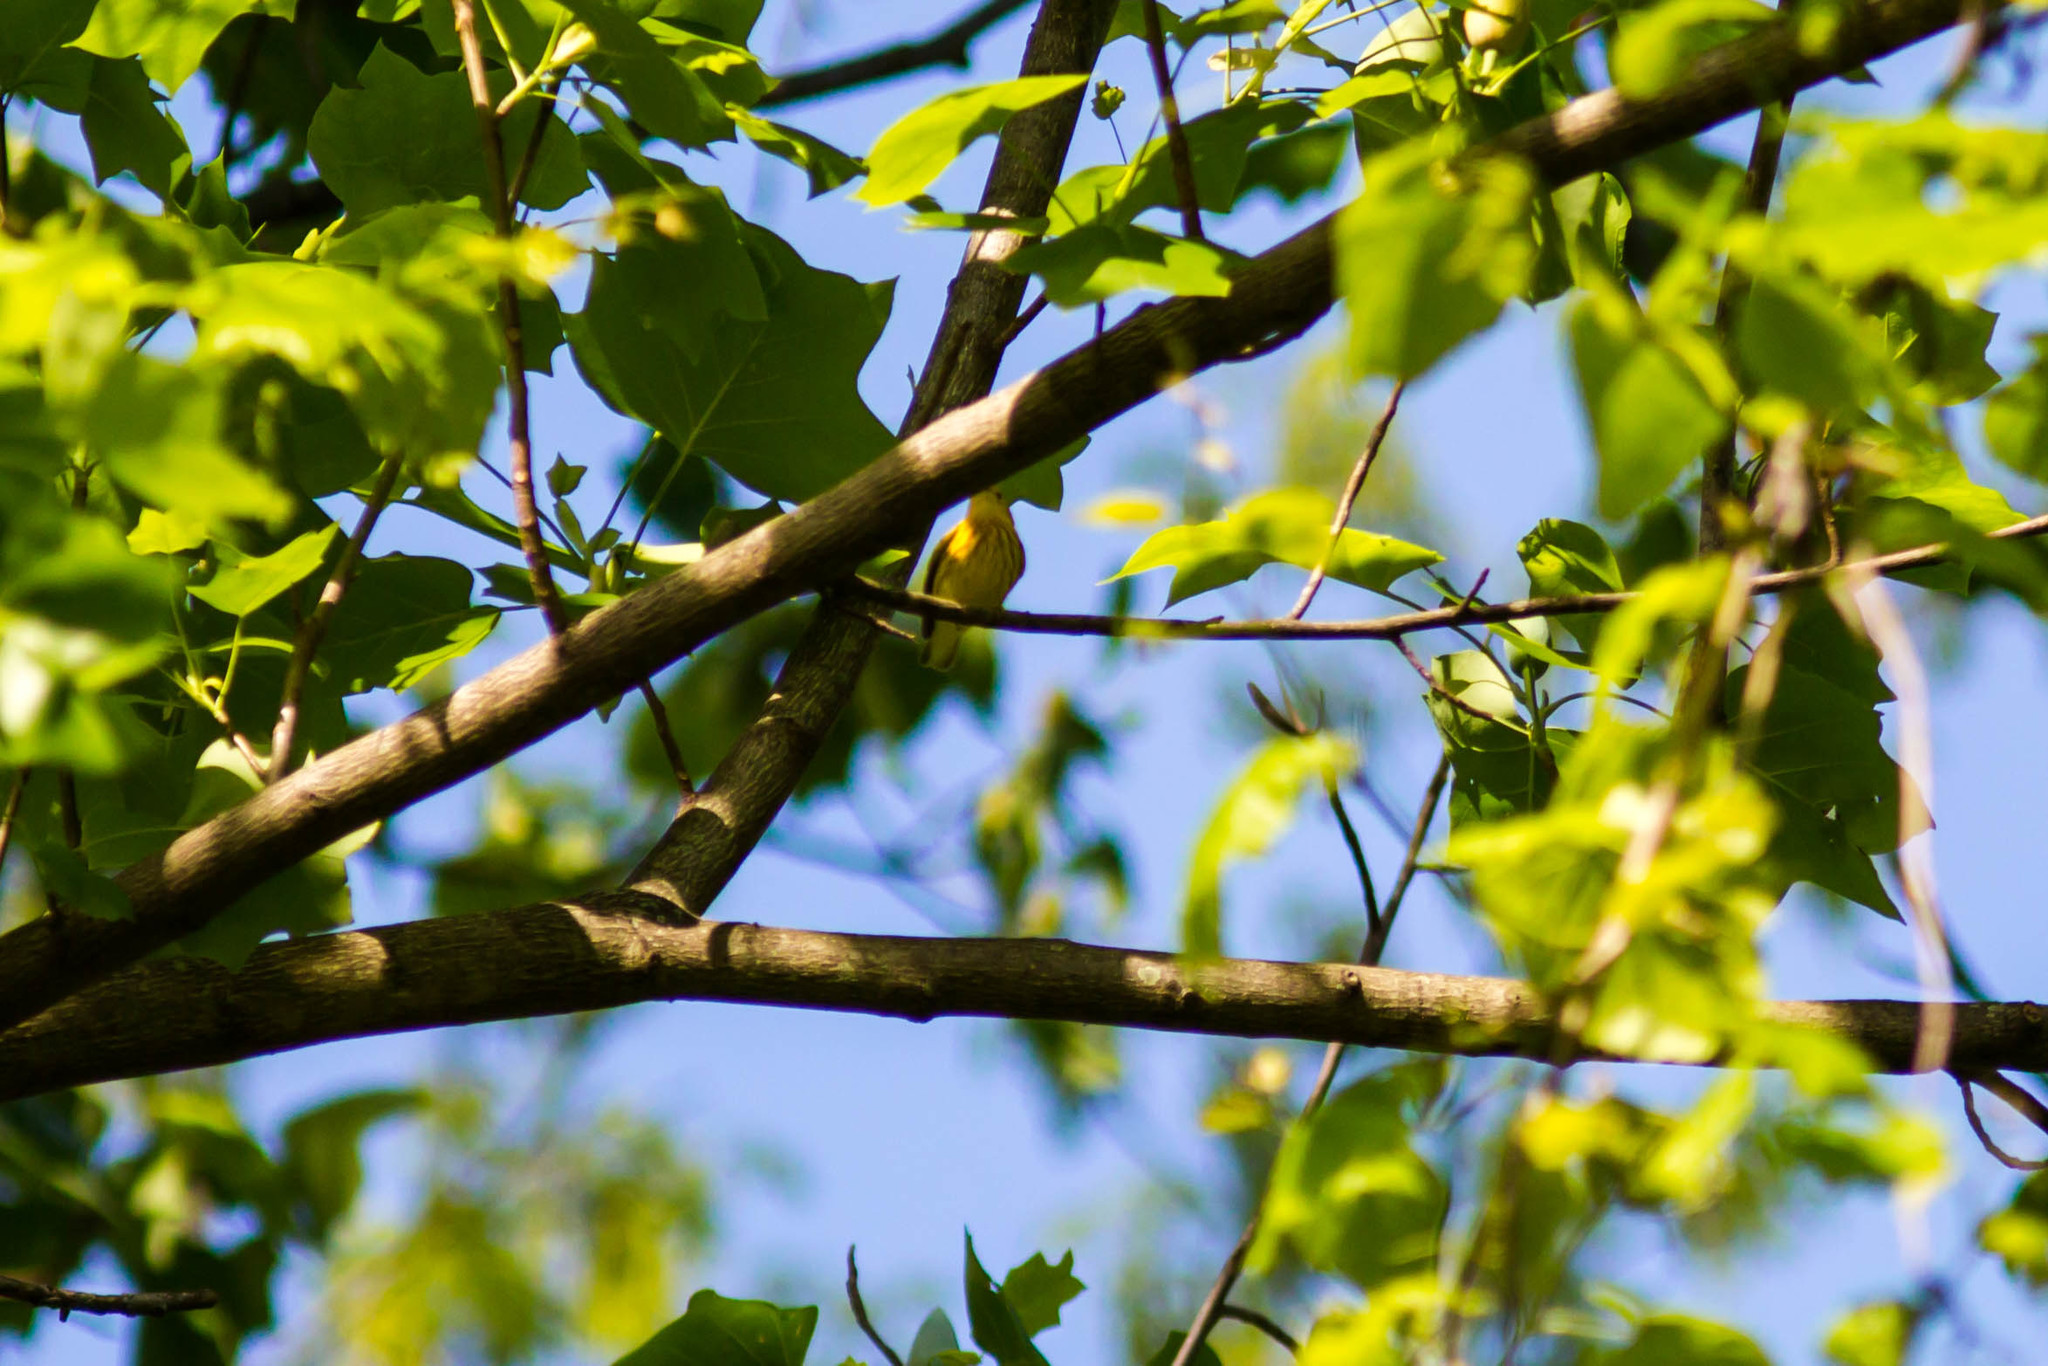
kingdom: Animalia
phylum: Chordata
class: Aves
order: Passeriformes
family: Parulidae
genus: Setophaga
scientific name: Setophaga petechia
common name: Yellow warbler
